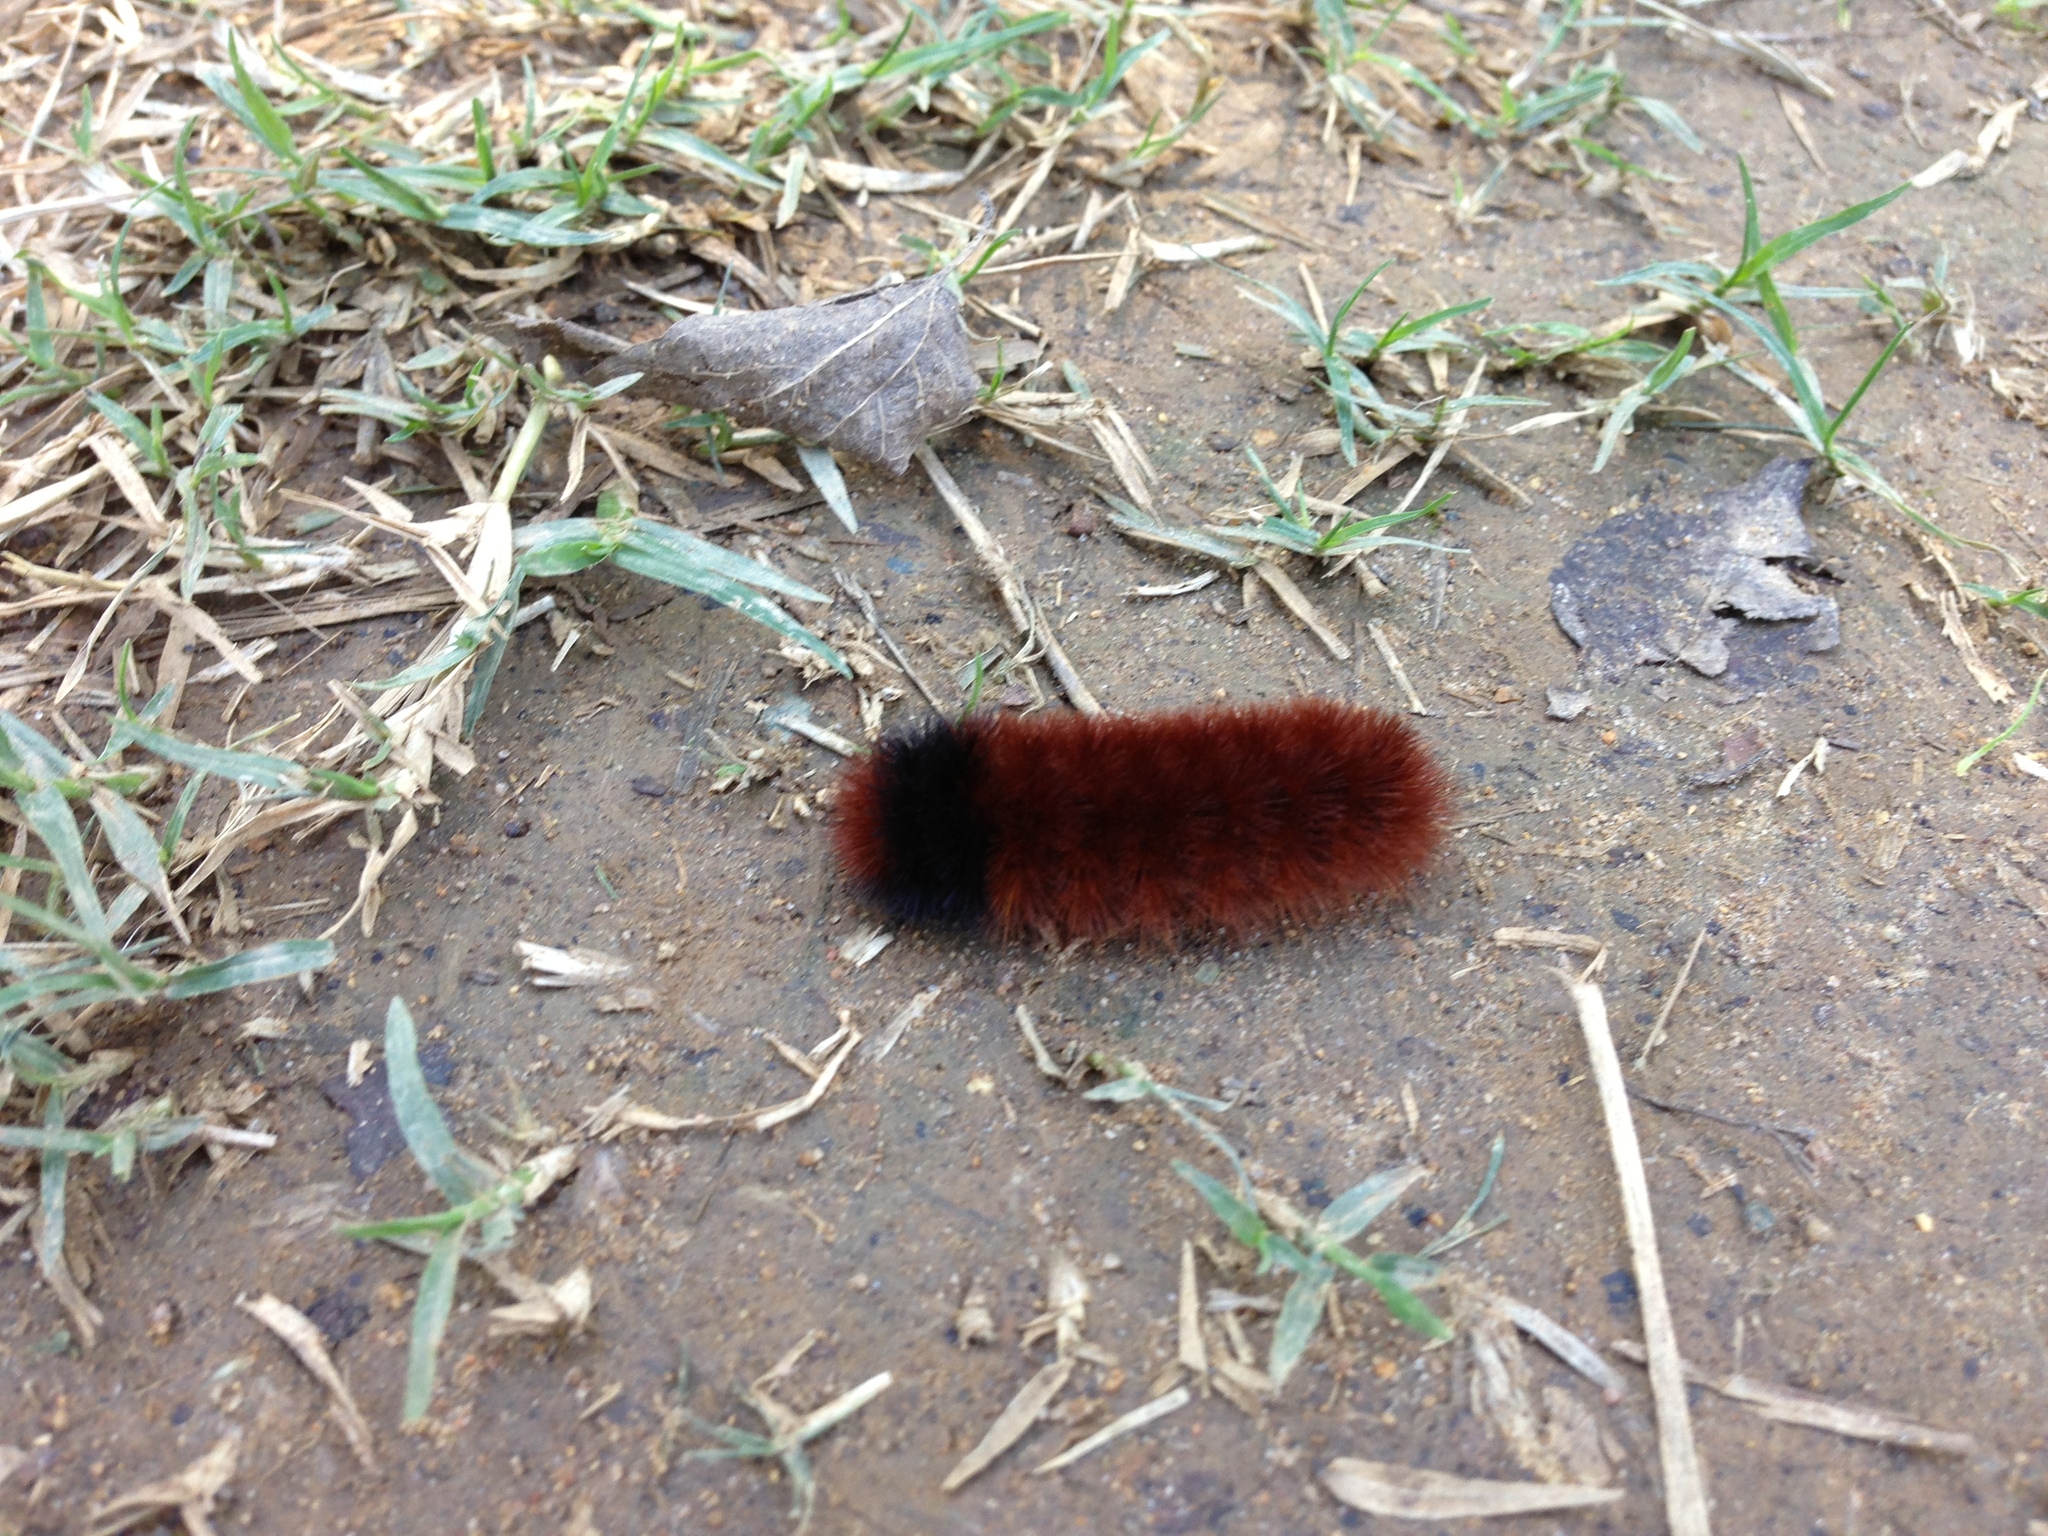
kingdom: Animalia
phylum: Arthropoda
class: Insecta
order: Lepidoptera
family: Erebidae
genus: Pyrrharctia
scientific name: Pyrrharctia isabella
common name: Isabella tiger moth
